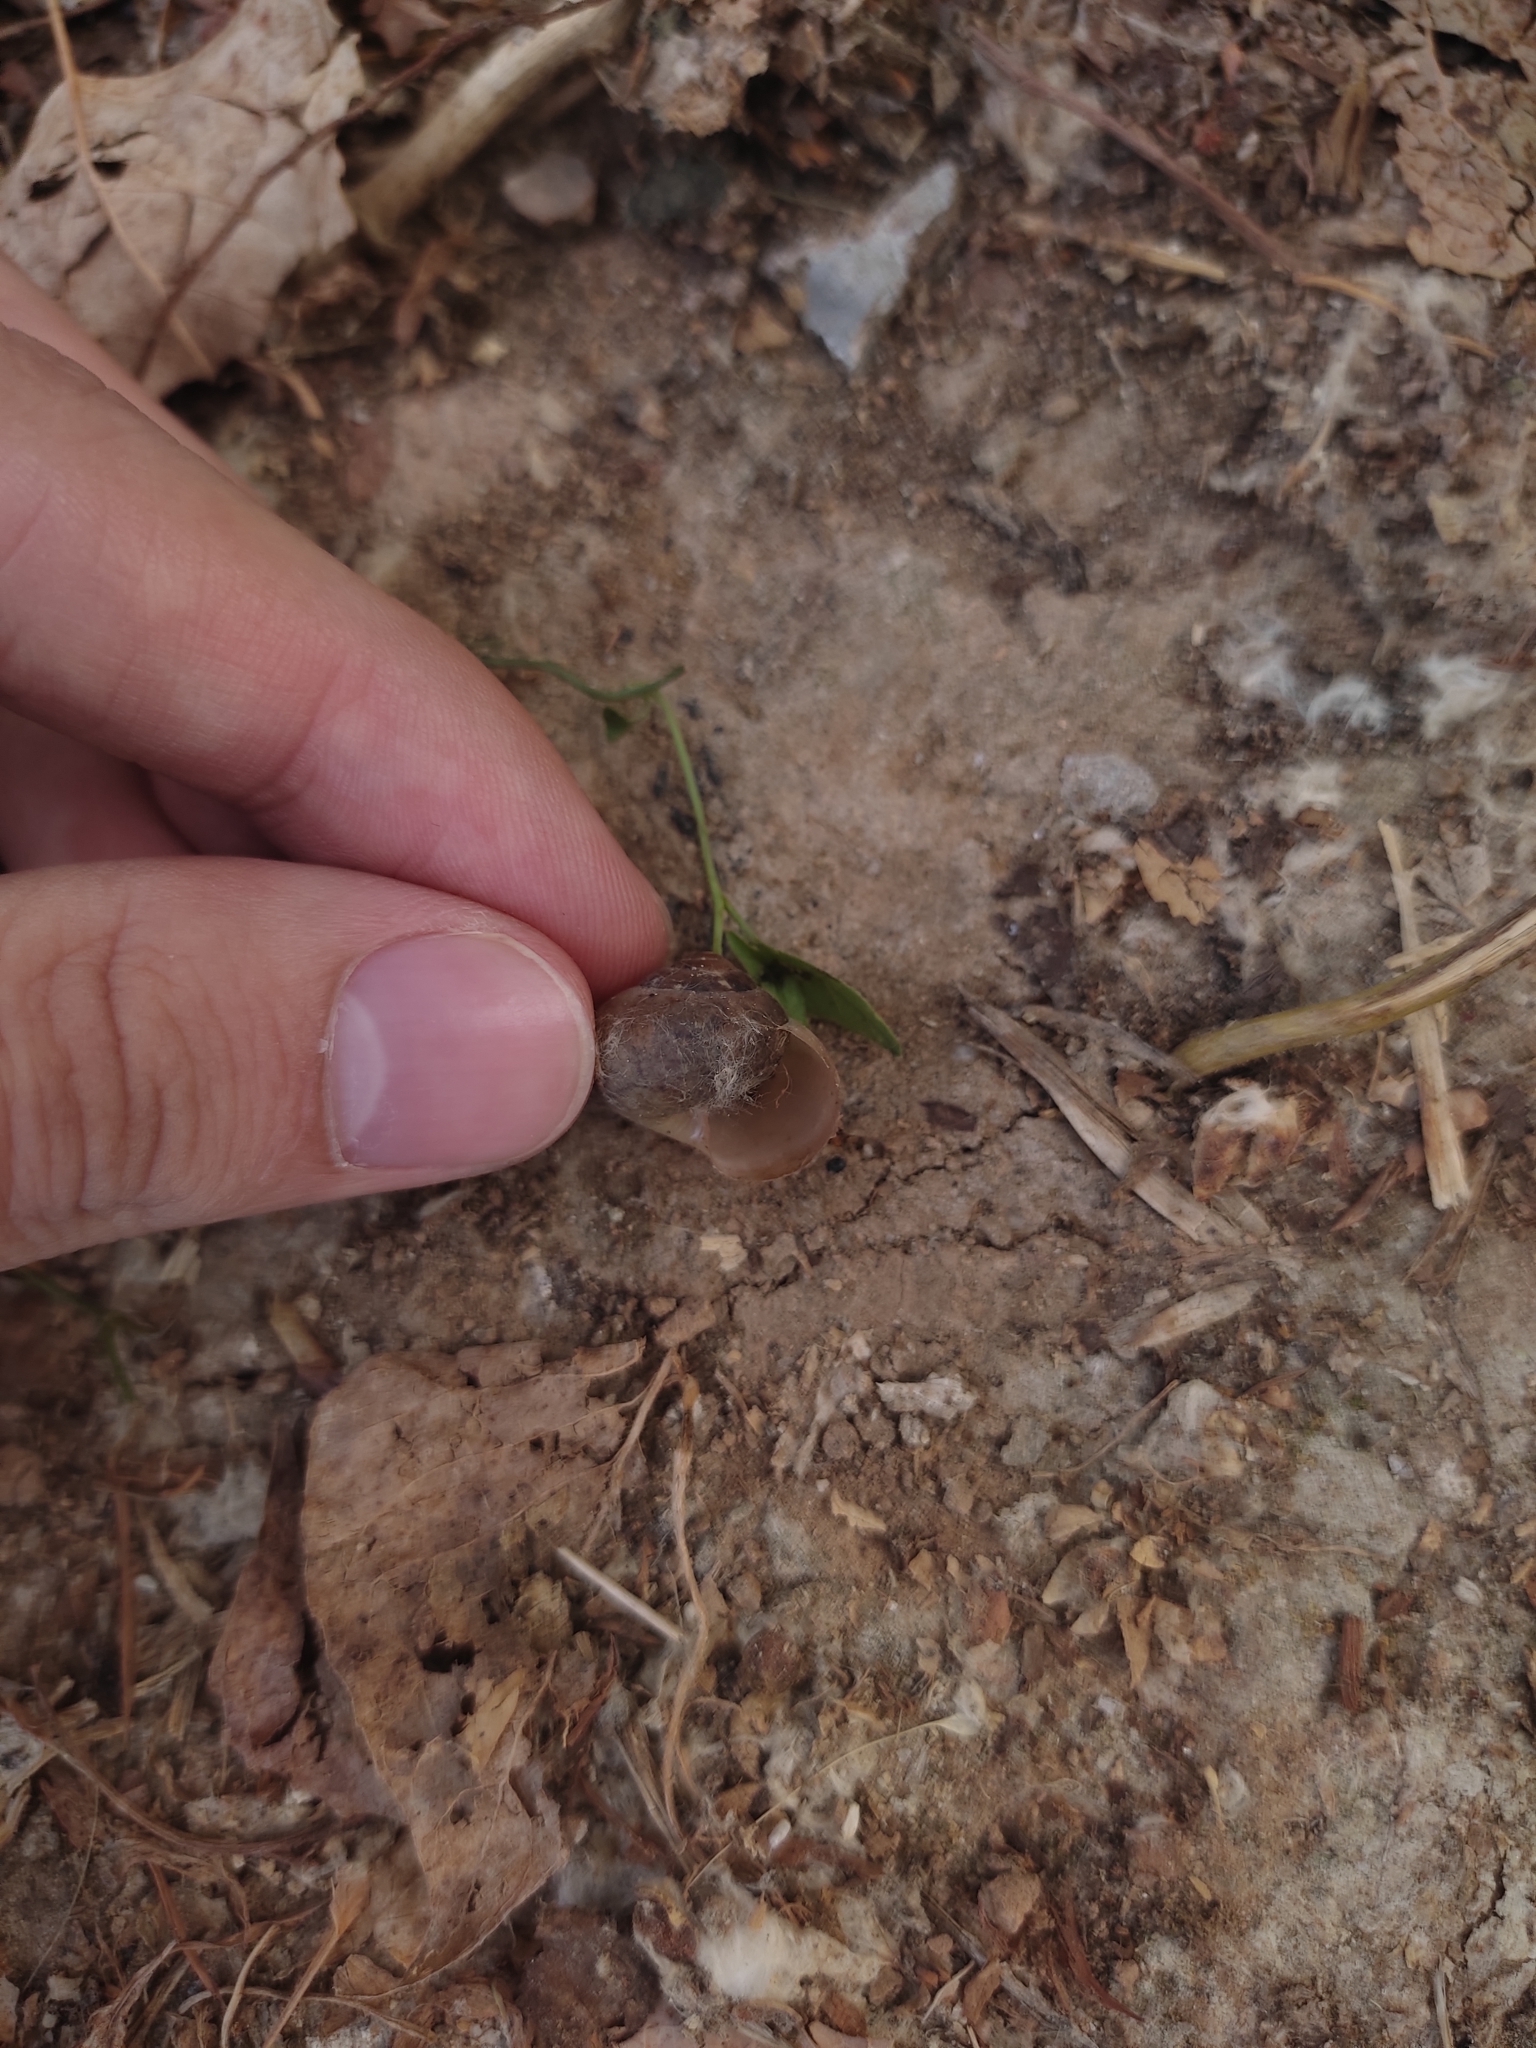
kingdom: Animalia
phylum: Mollusca
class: Gastropoda
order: Stylommatophora
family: Camaenidae
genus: Fruticicola
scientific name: Fruticicola fruticum
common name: Bush snail
